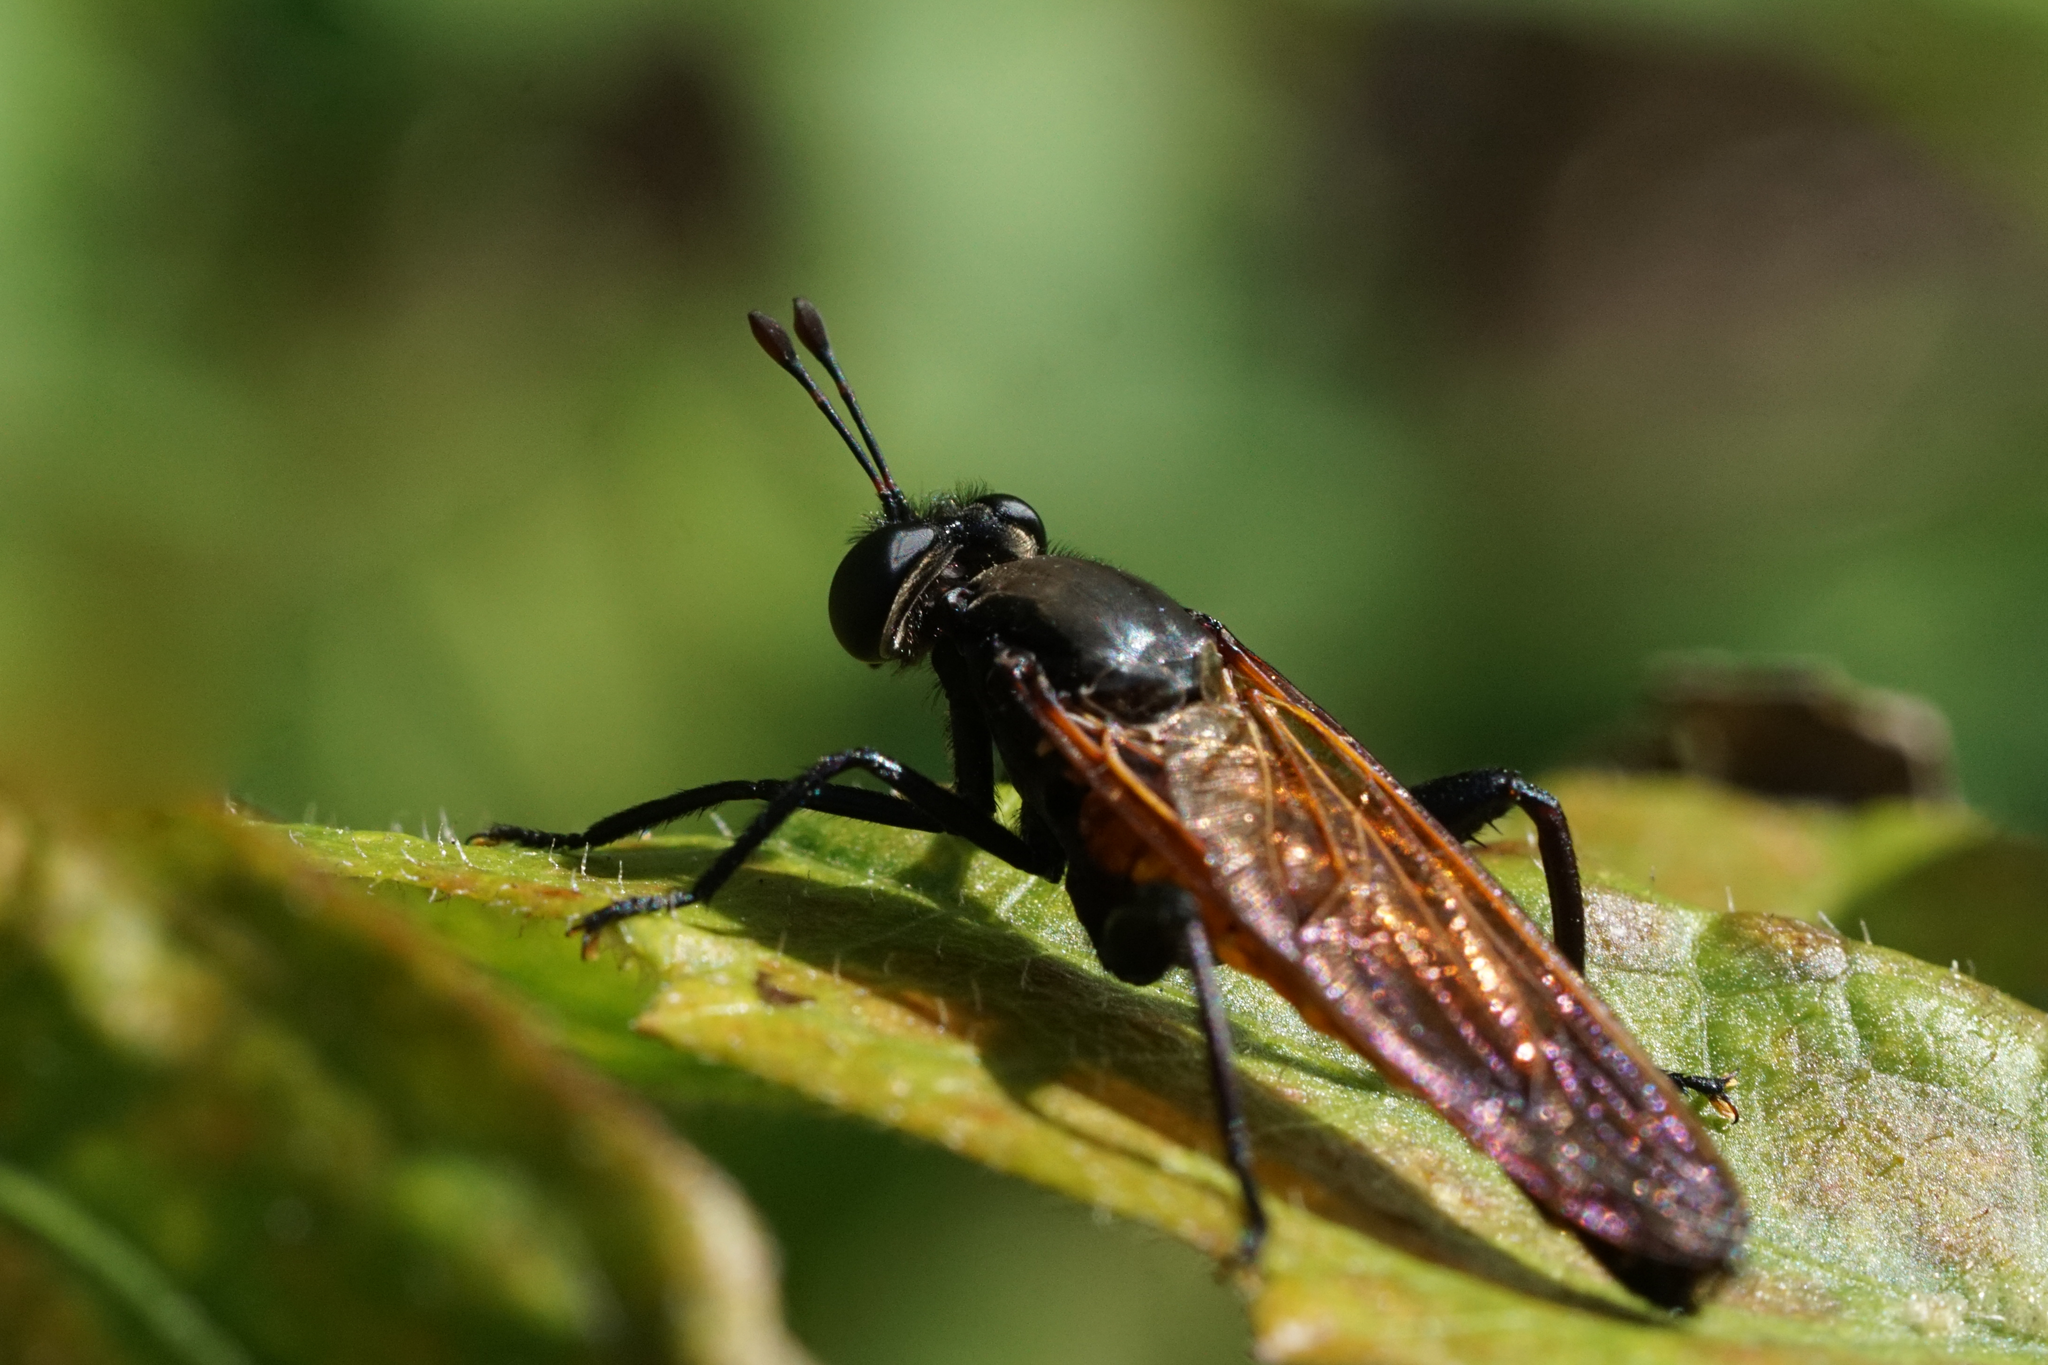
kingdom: Animalia
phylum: Arthropoda
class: Insecta
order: Diptera
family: Mydidae
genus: Mydas
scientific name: Mydas maculiventris
